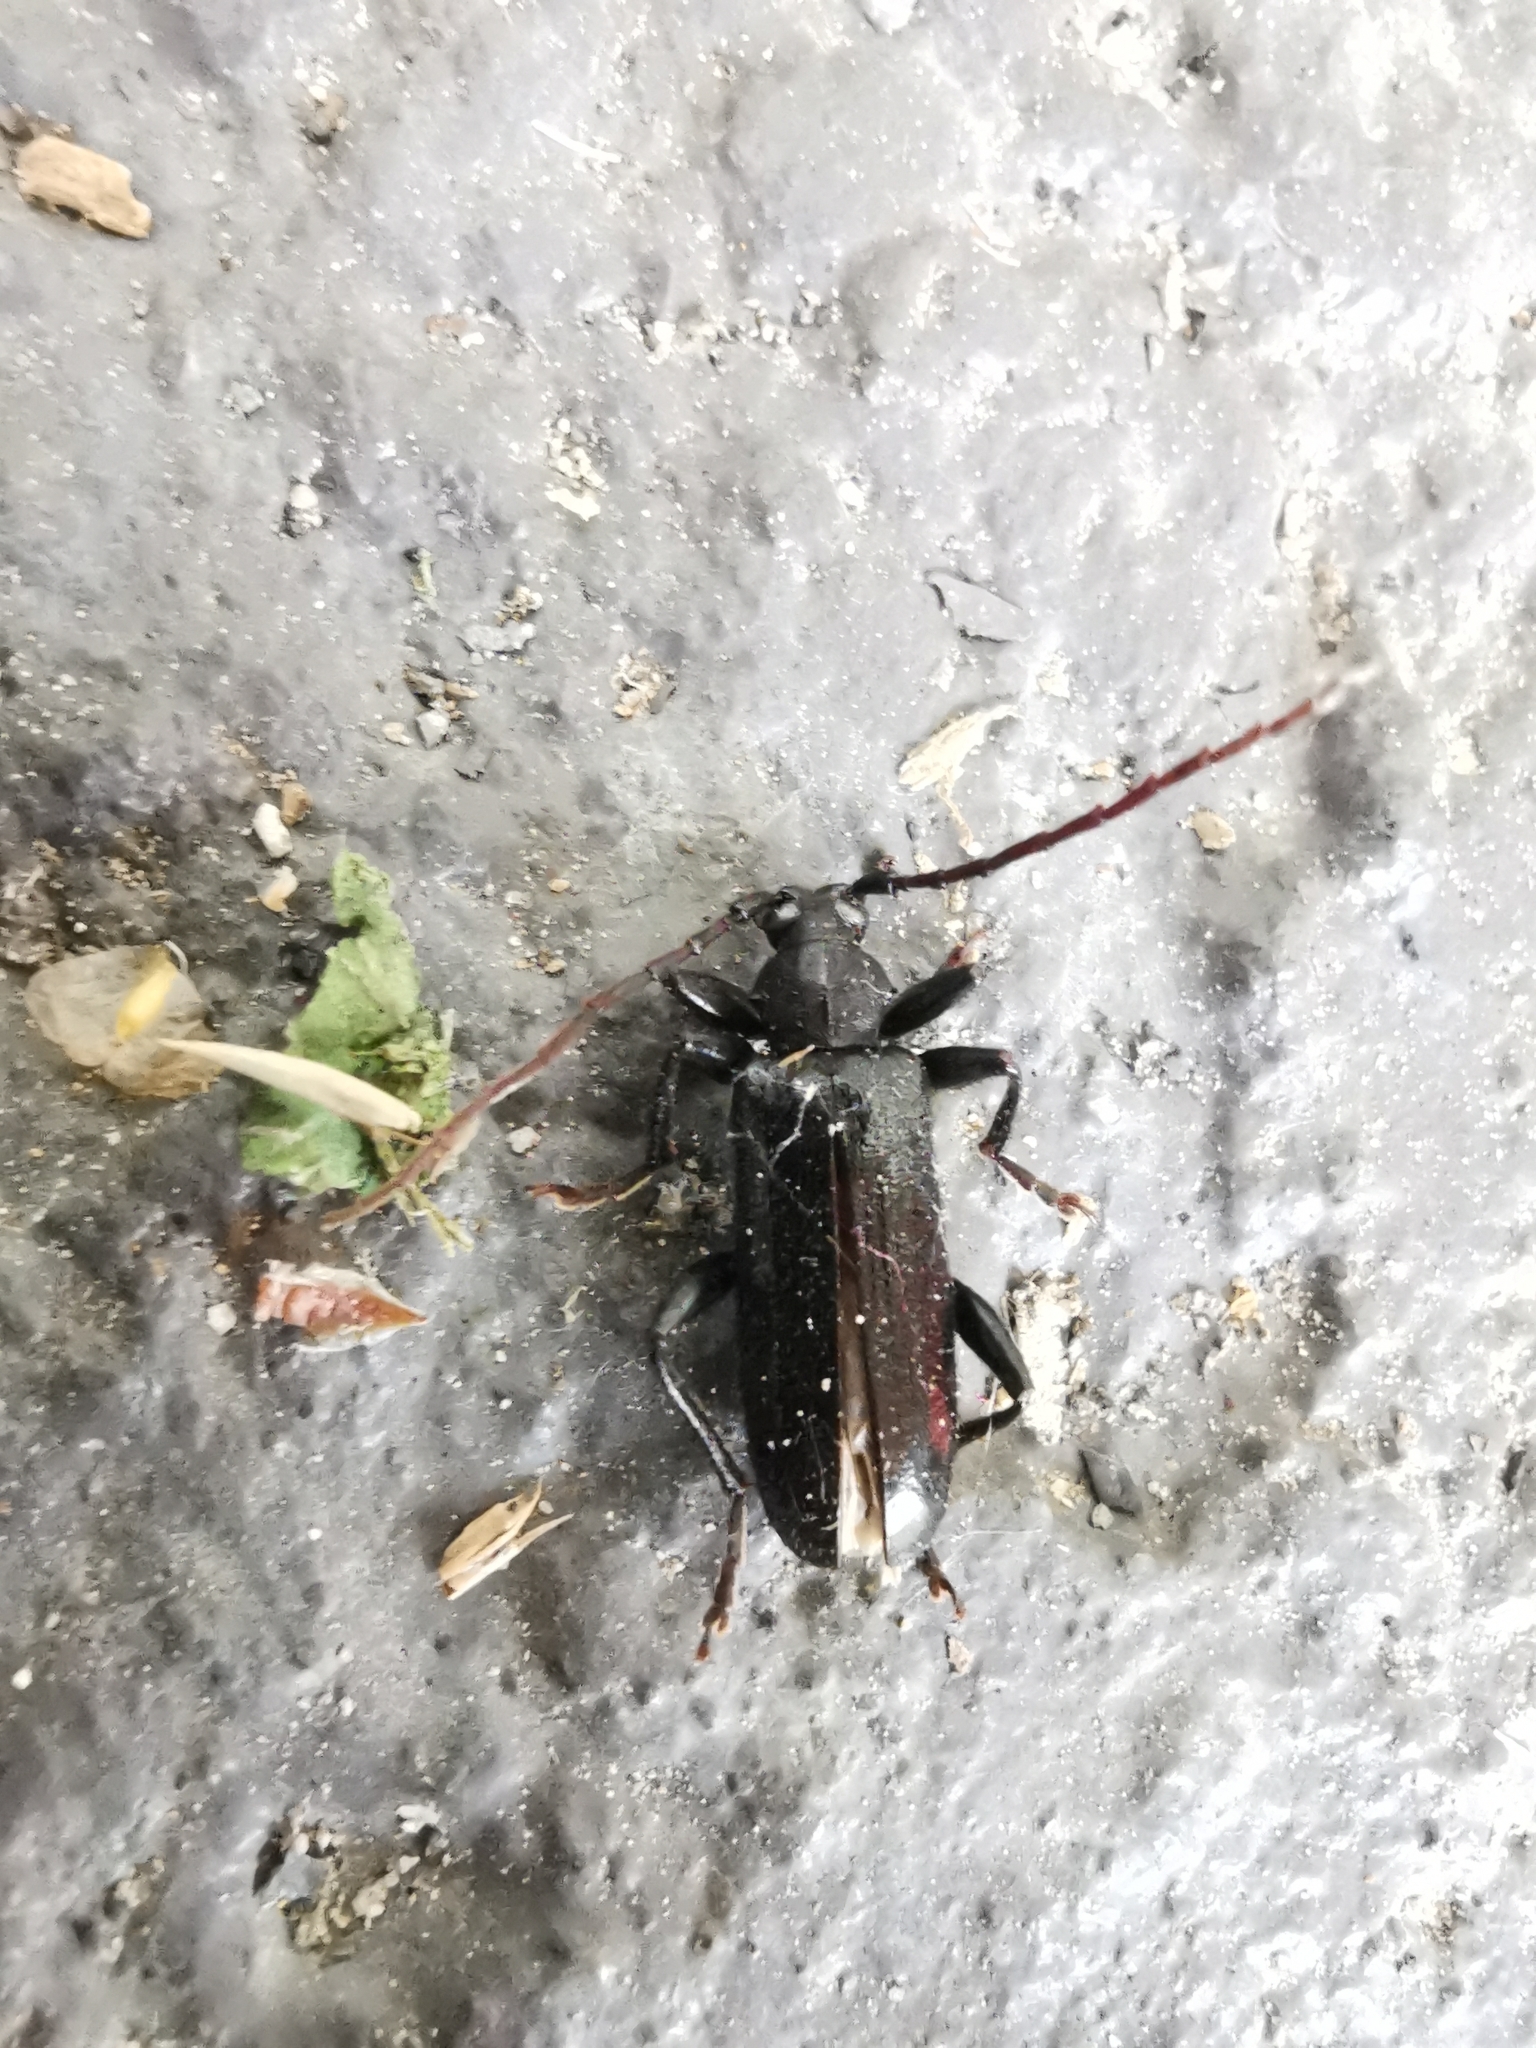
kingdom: Animalia
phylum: Arthropoda
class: Insecta
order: Coleoptera
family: Cerambycidae
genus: Saphanus
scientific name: Saphanus piceus
